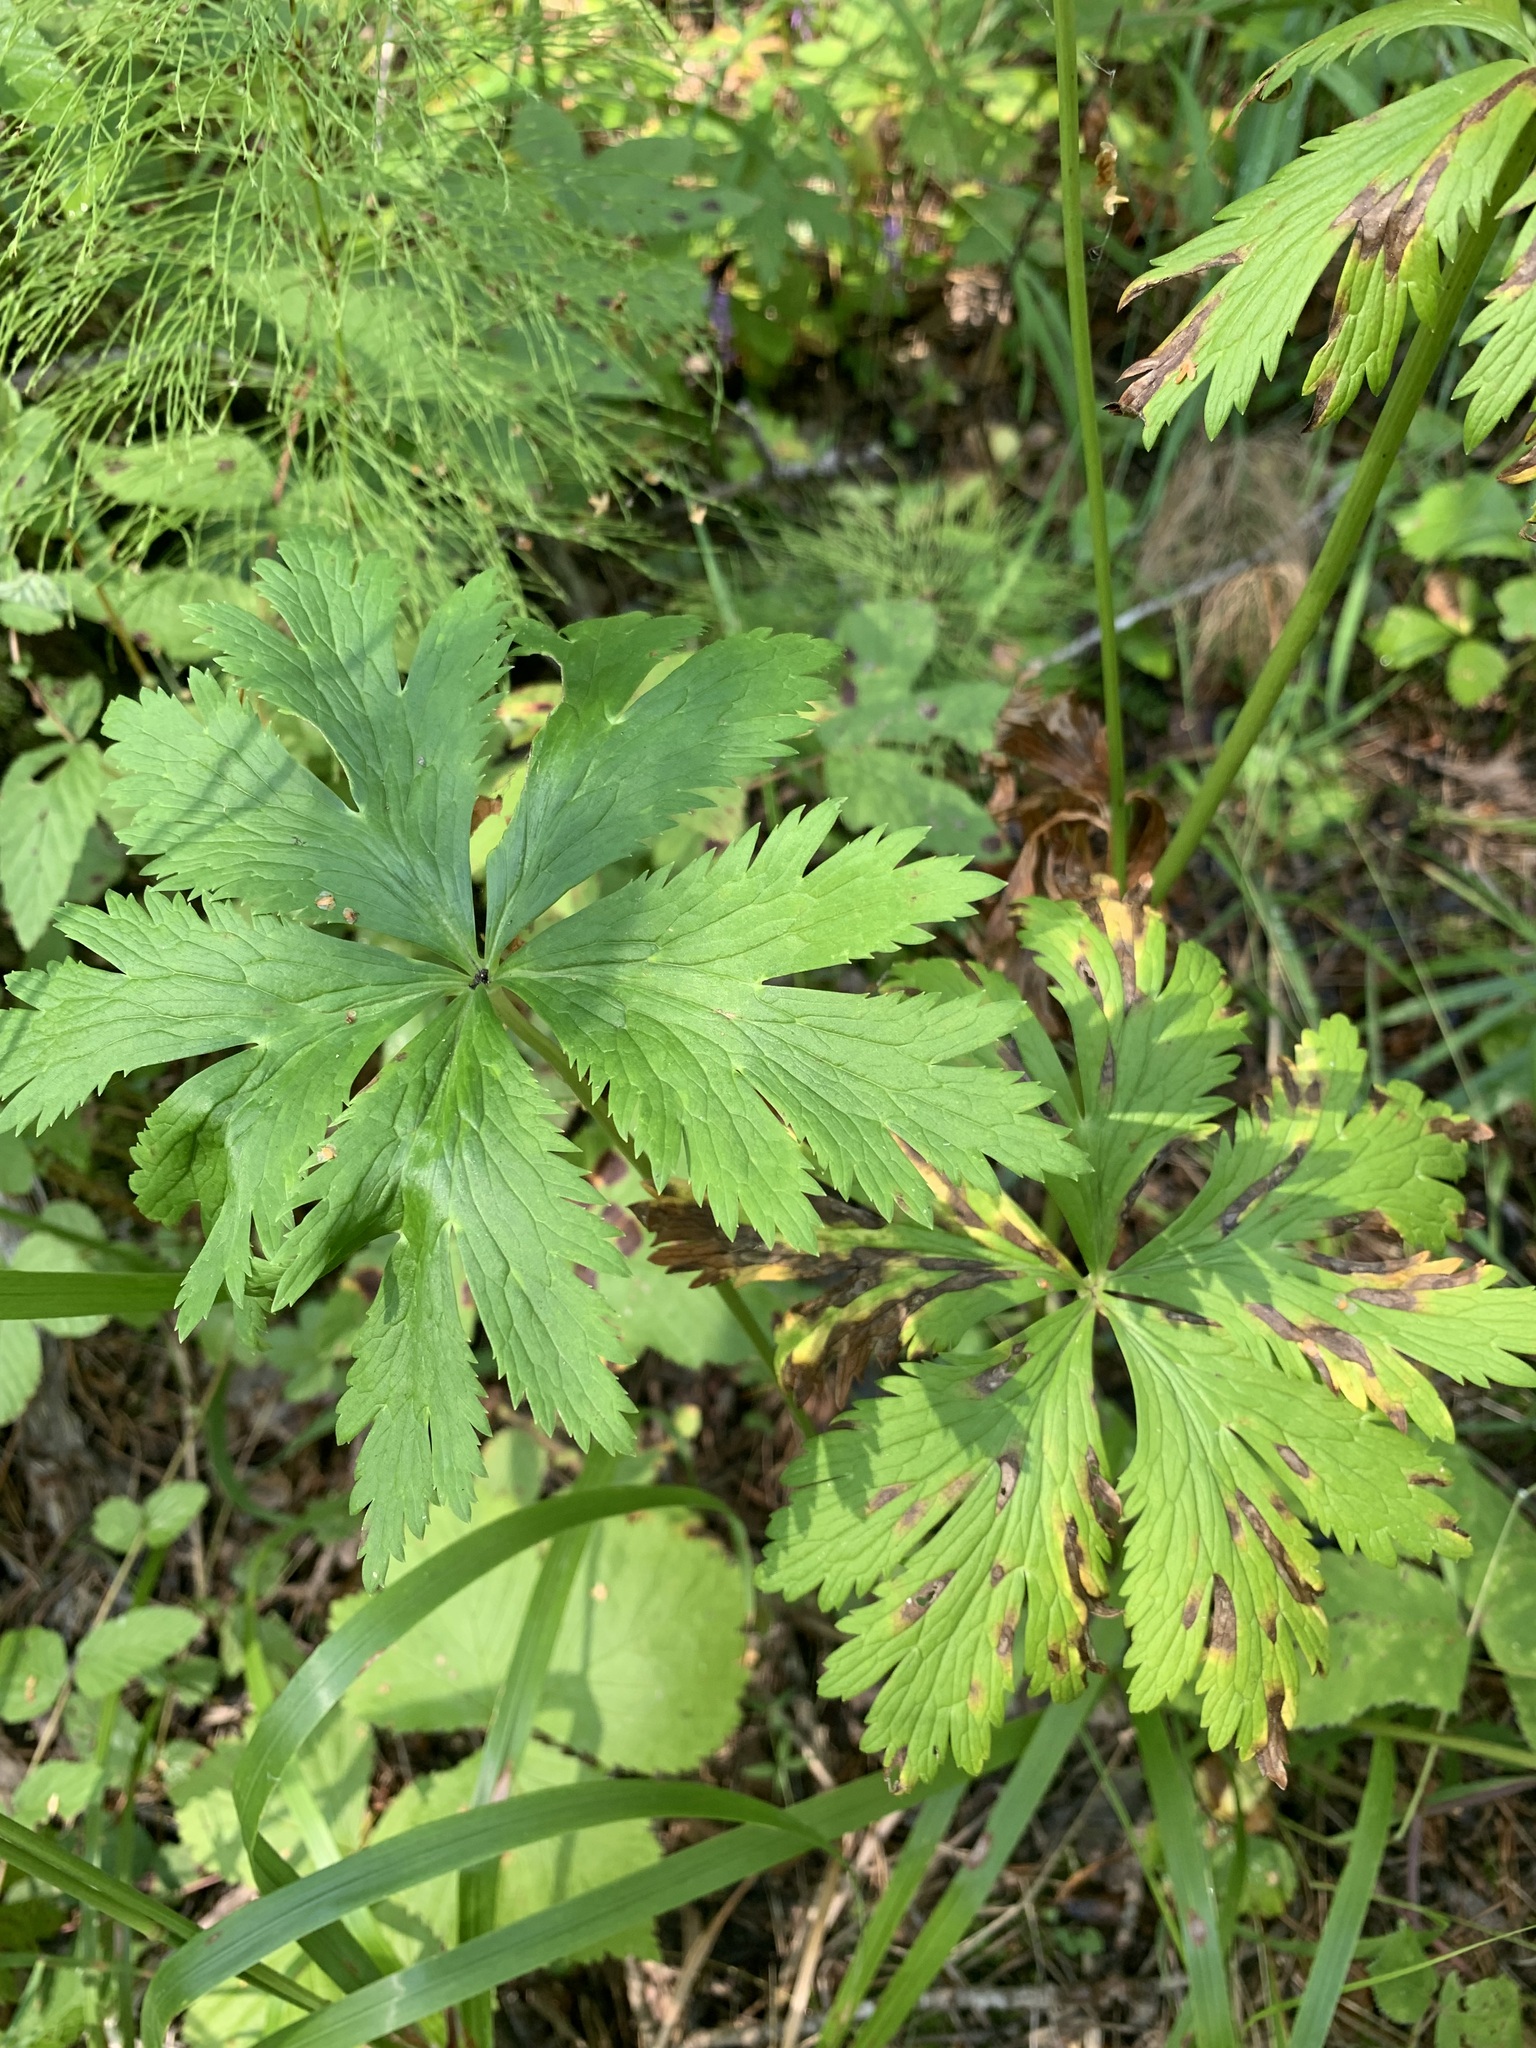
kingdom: Plantae
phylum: Tracheophyta
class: Magnoliopsida
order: Ranunculales
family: Ranunculaceae
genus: Trollius
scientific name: Trollius europaeus
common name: European globeflower
